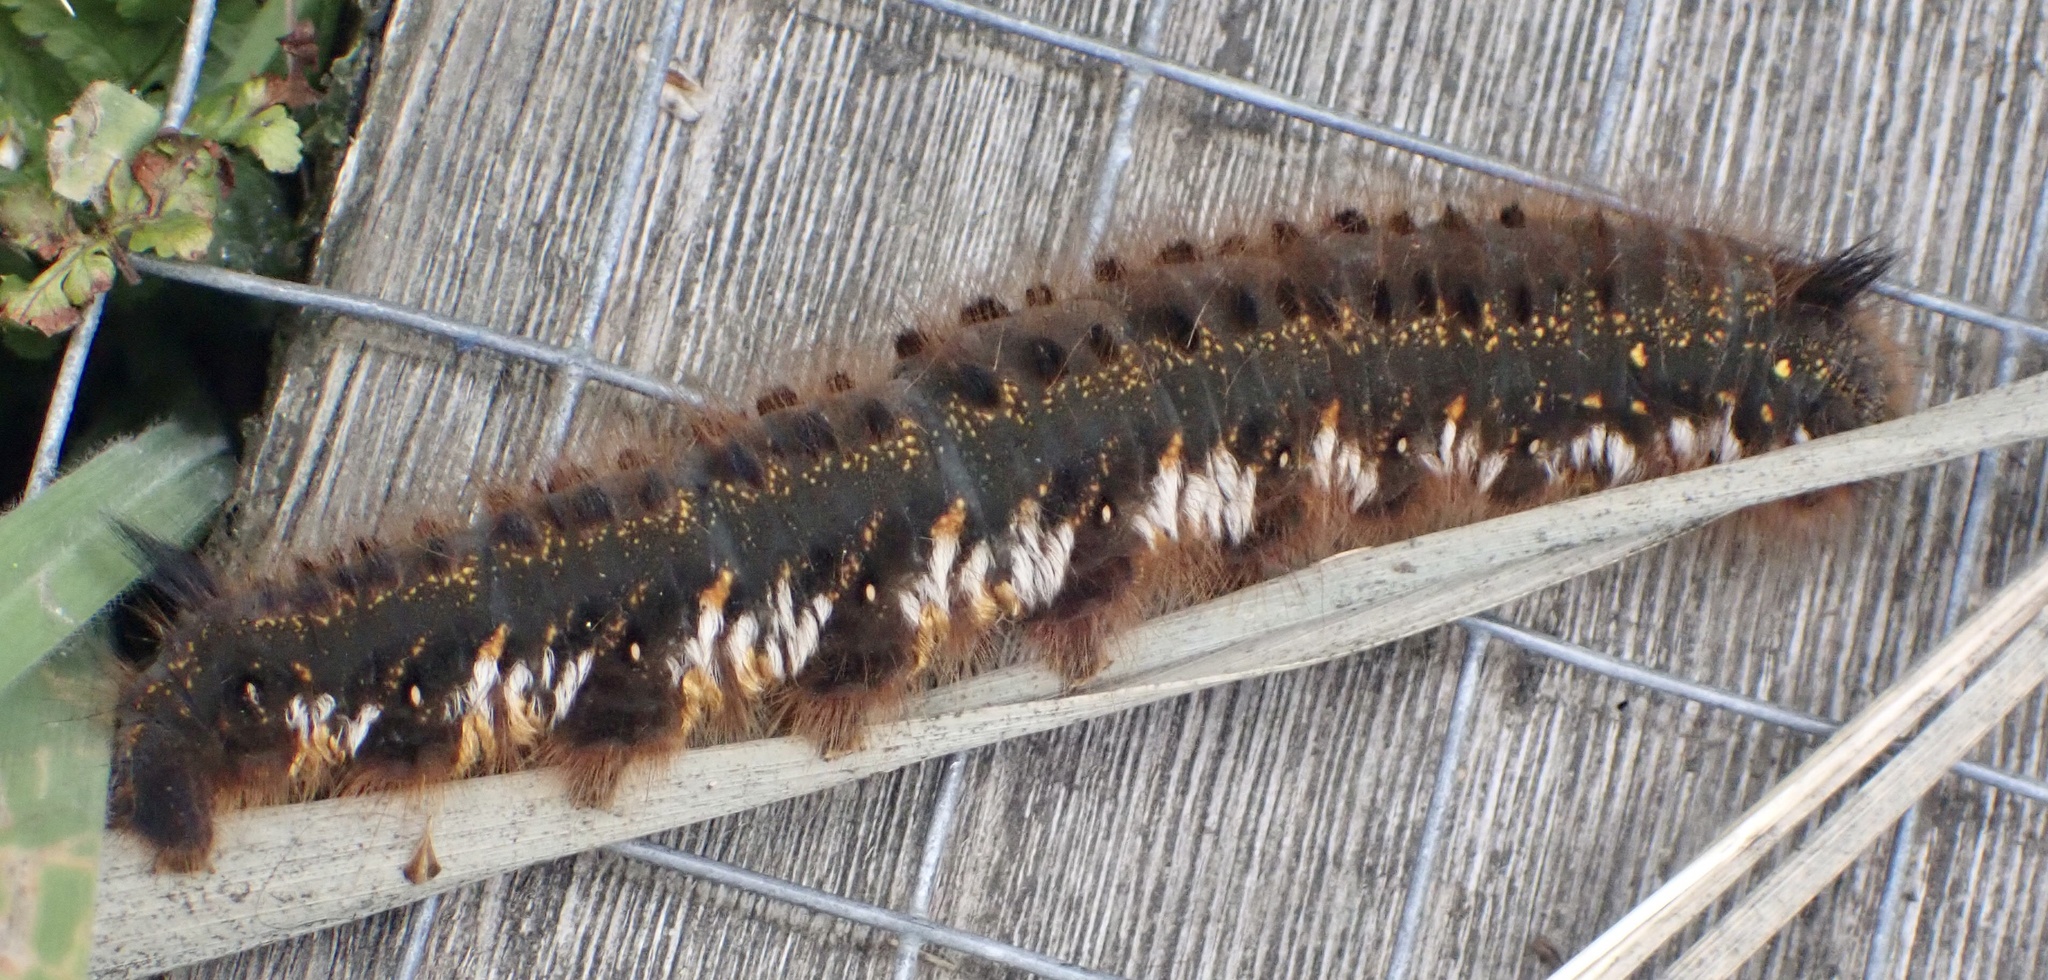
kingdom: Animalia
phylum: Arthropoda
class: Insecta
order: Lepidoptera
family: Lasiocampidae
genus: Euthrix
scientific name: Euthrix potatoria
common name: Drinker
